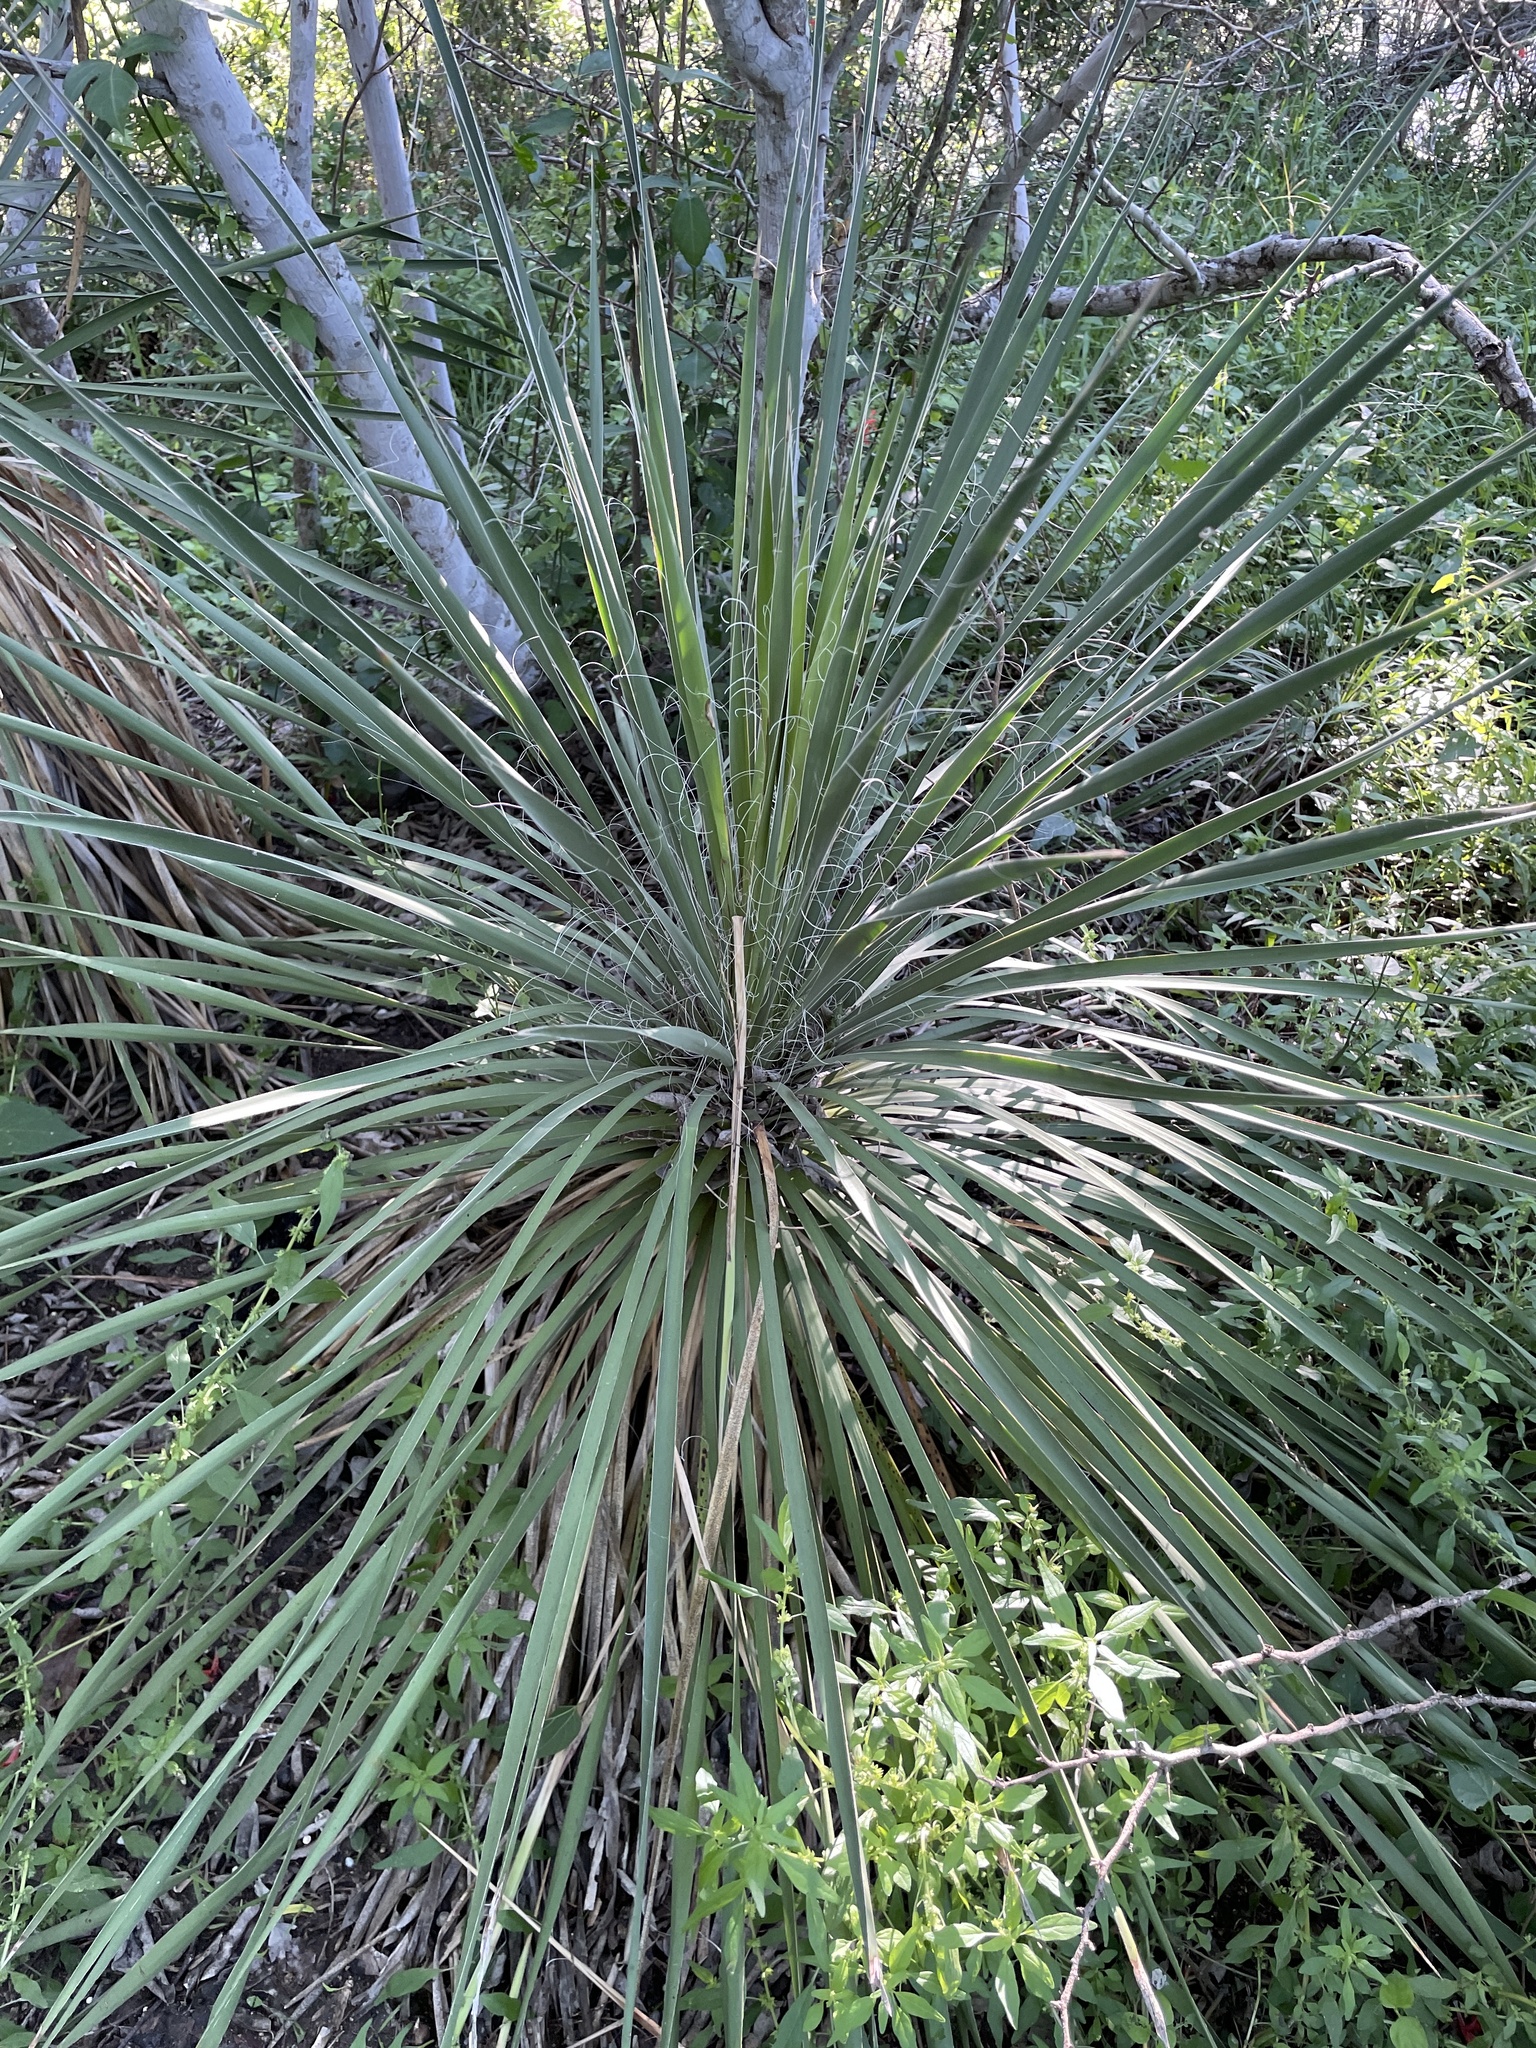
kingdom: Plantae
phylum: Tracheophyta
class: Liliopsida
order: Asparagales
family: Asparagaceae
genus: Yucca
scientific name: Yucca constricta
